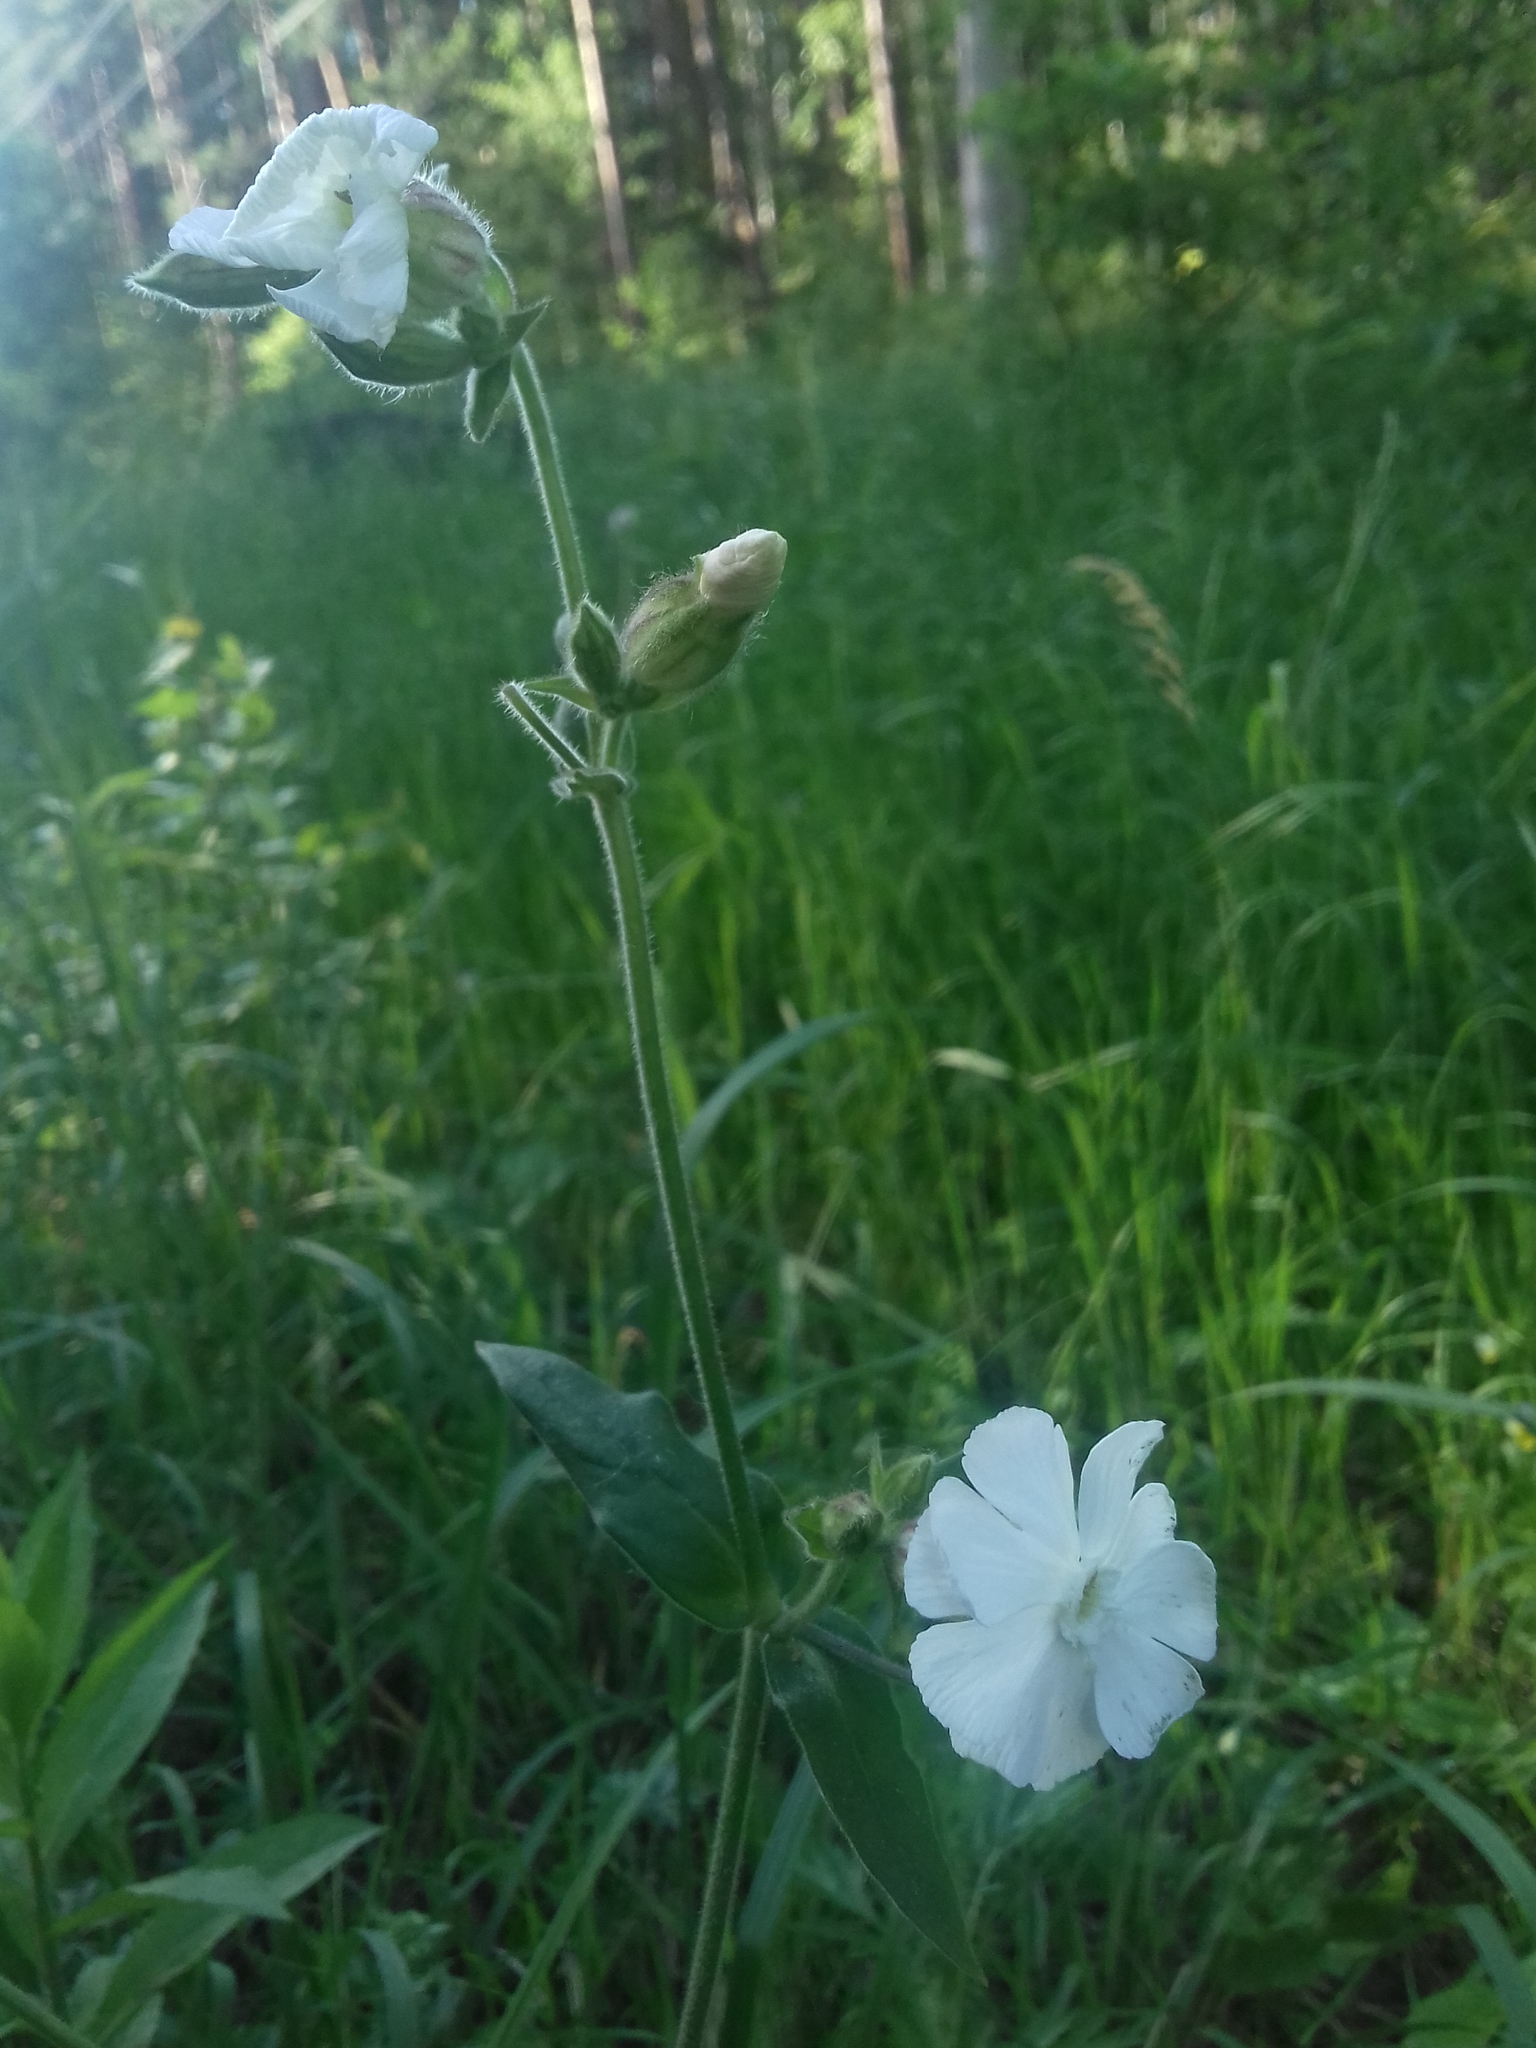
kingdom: Plantae
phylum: Tracheophyta
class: Magnoliopsida
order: Caryophyllales
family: Caryophyllaceae
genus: Silene
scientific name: Silene latifolia
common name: White campion
